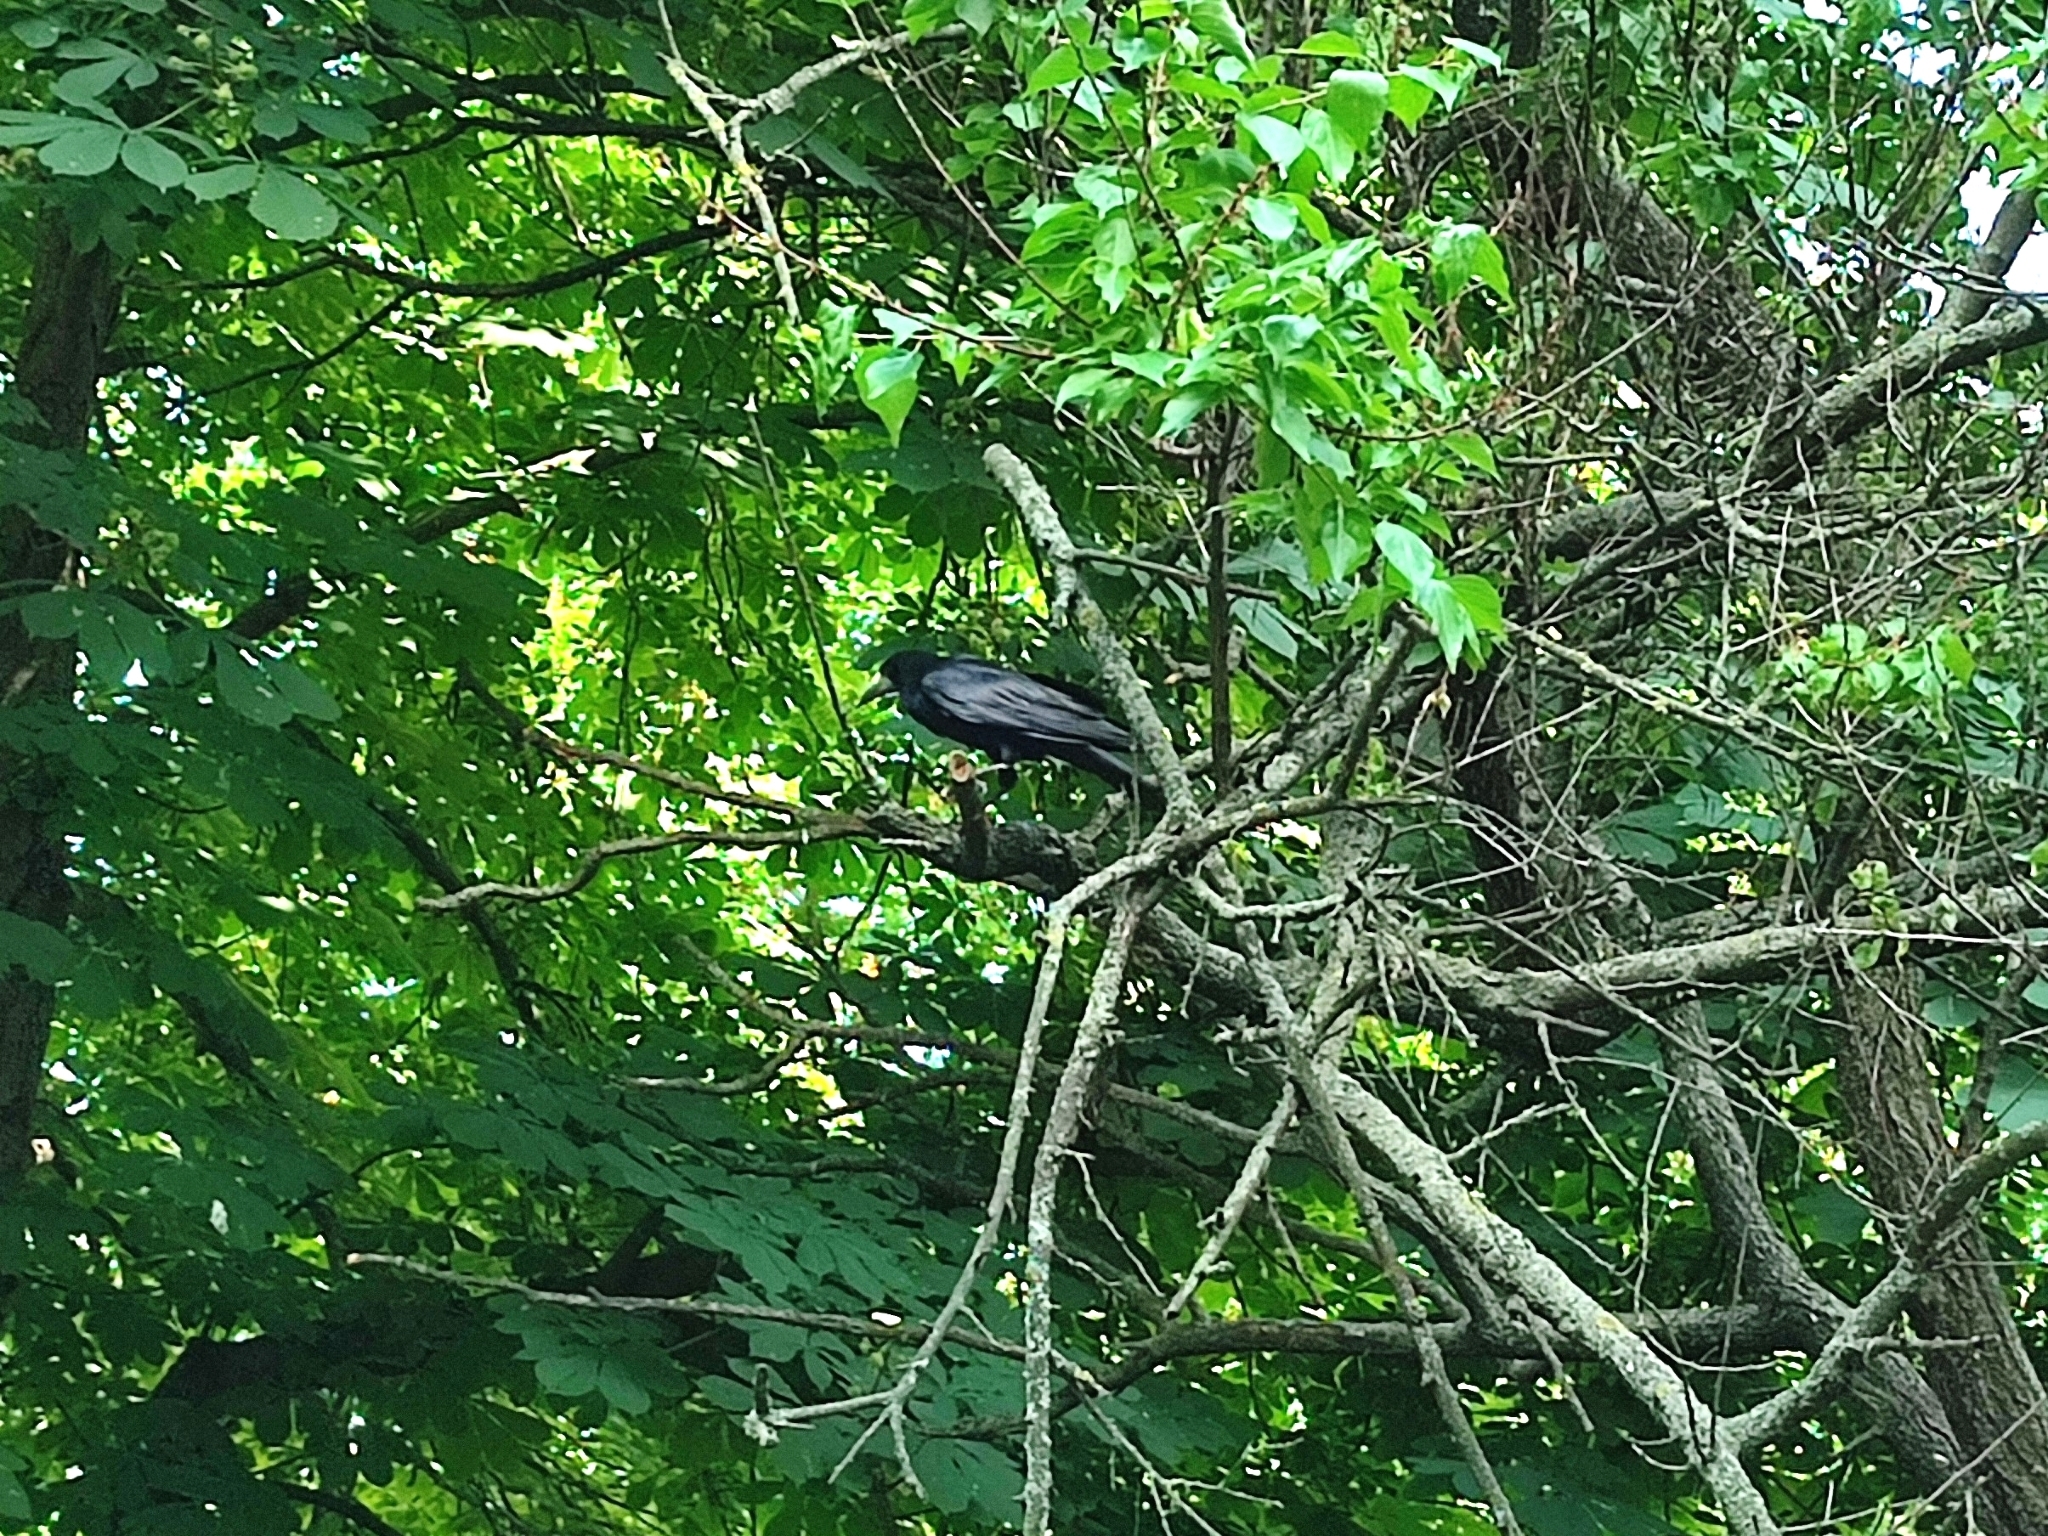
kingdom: Animalia
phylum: Chordata
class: Aves
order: Passeriformes
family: Corvidae
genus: Corvus
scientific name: Corvus frugilegus
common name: Rook
